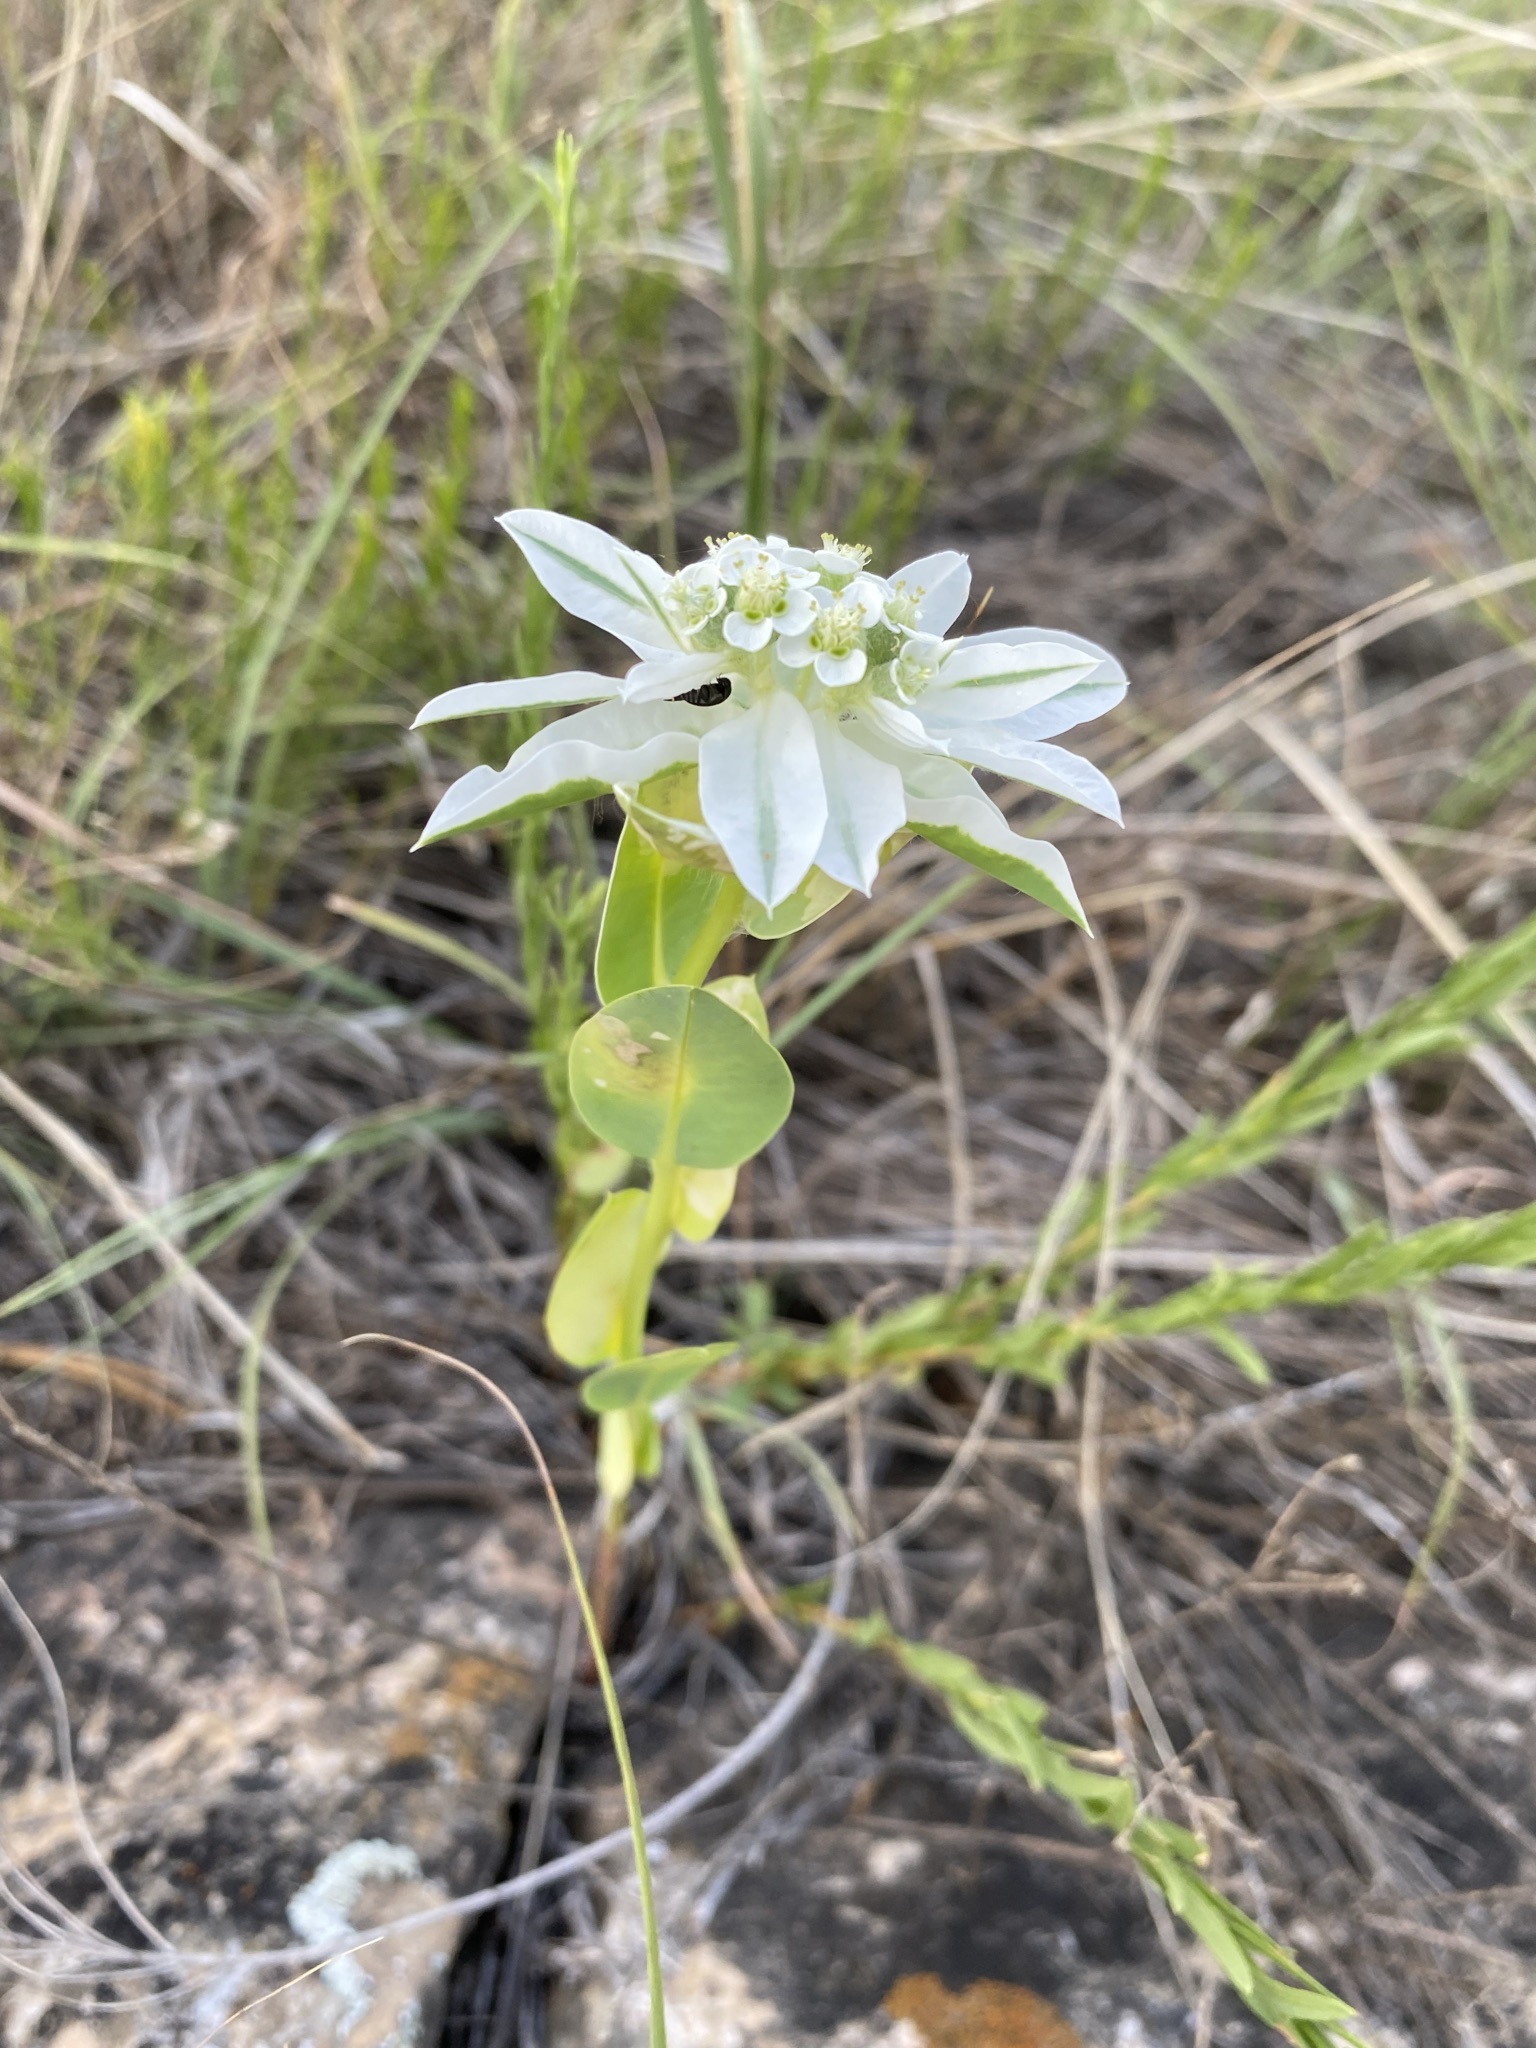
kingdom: Plantae
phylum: Tracheophyta
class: Magnoliopsida
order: Malpighiales
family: Euphorbiaceae
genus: Euphorbia
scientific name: Euphorbia marginata
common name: Ghostweed
